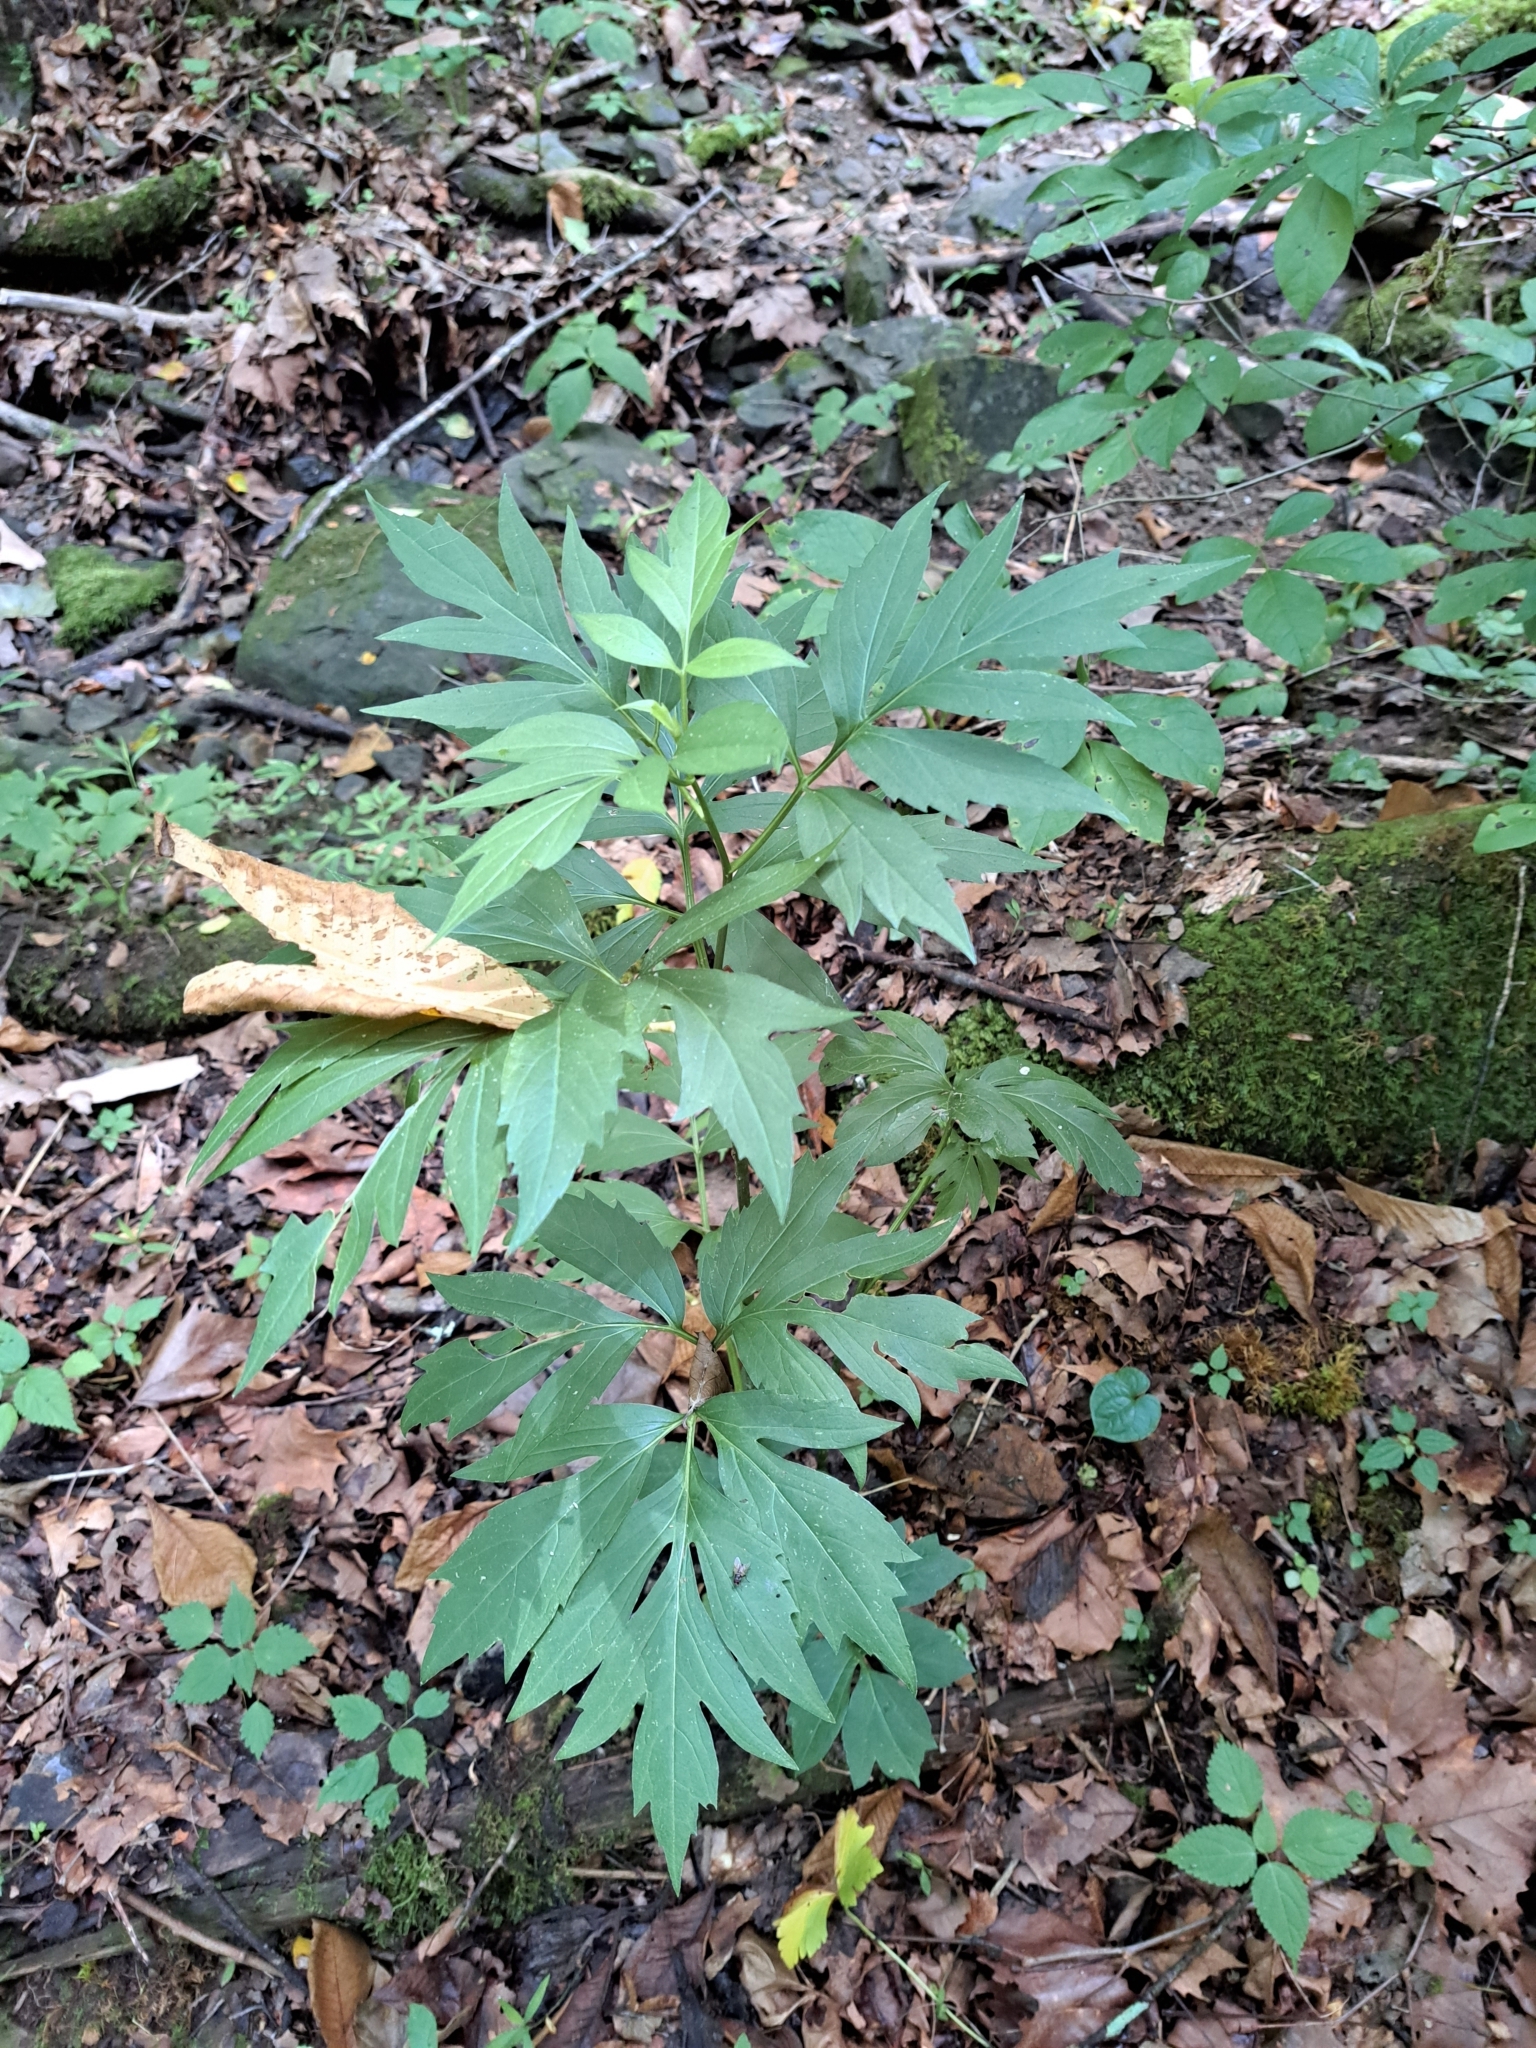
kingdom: Plantae
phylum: Tracheophyta
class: Magnoliopsida
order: Asterales
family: Asteraceae
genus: Rudbeckia
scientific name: Rudbeckia laciniata
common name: Coneflower
